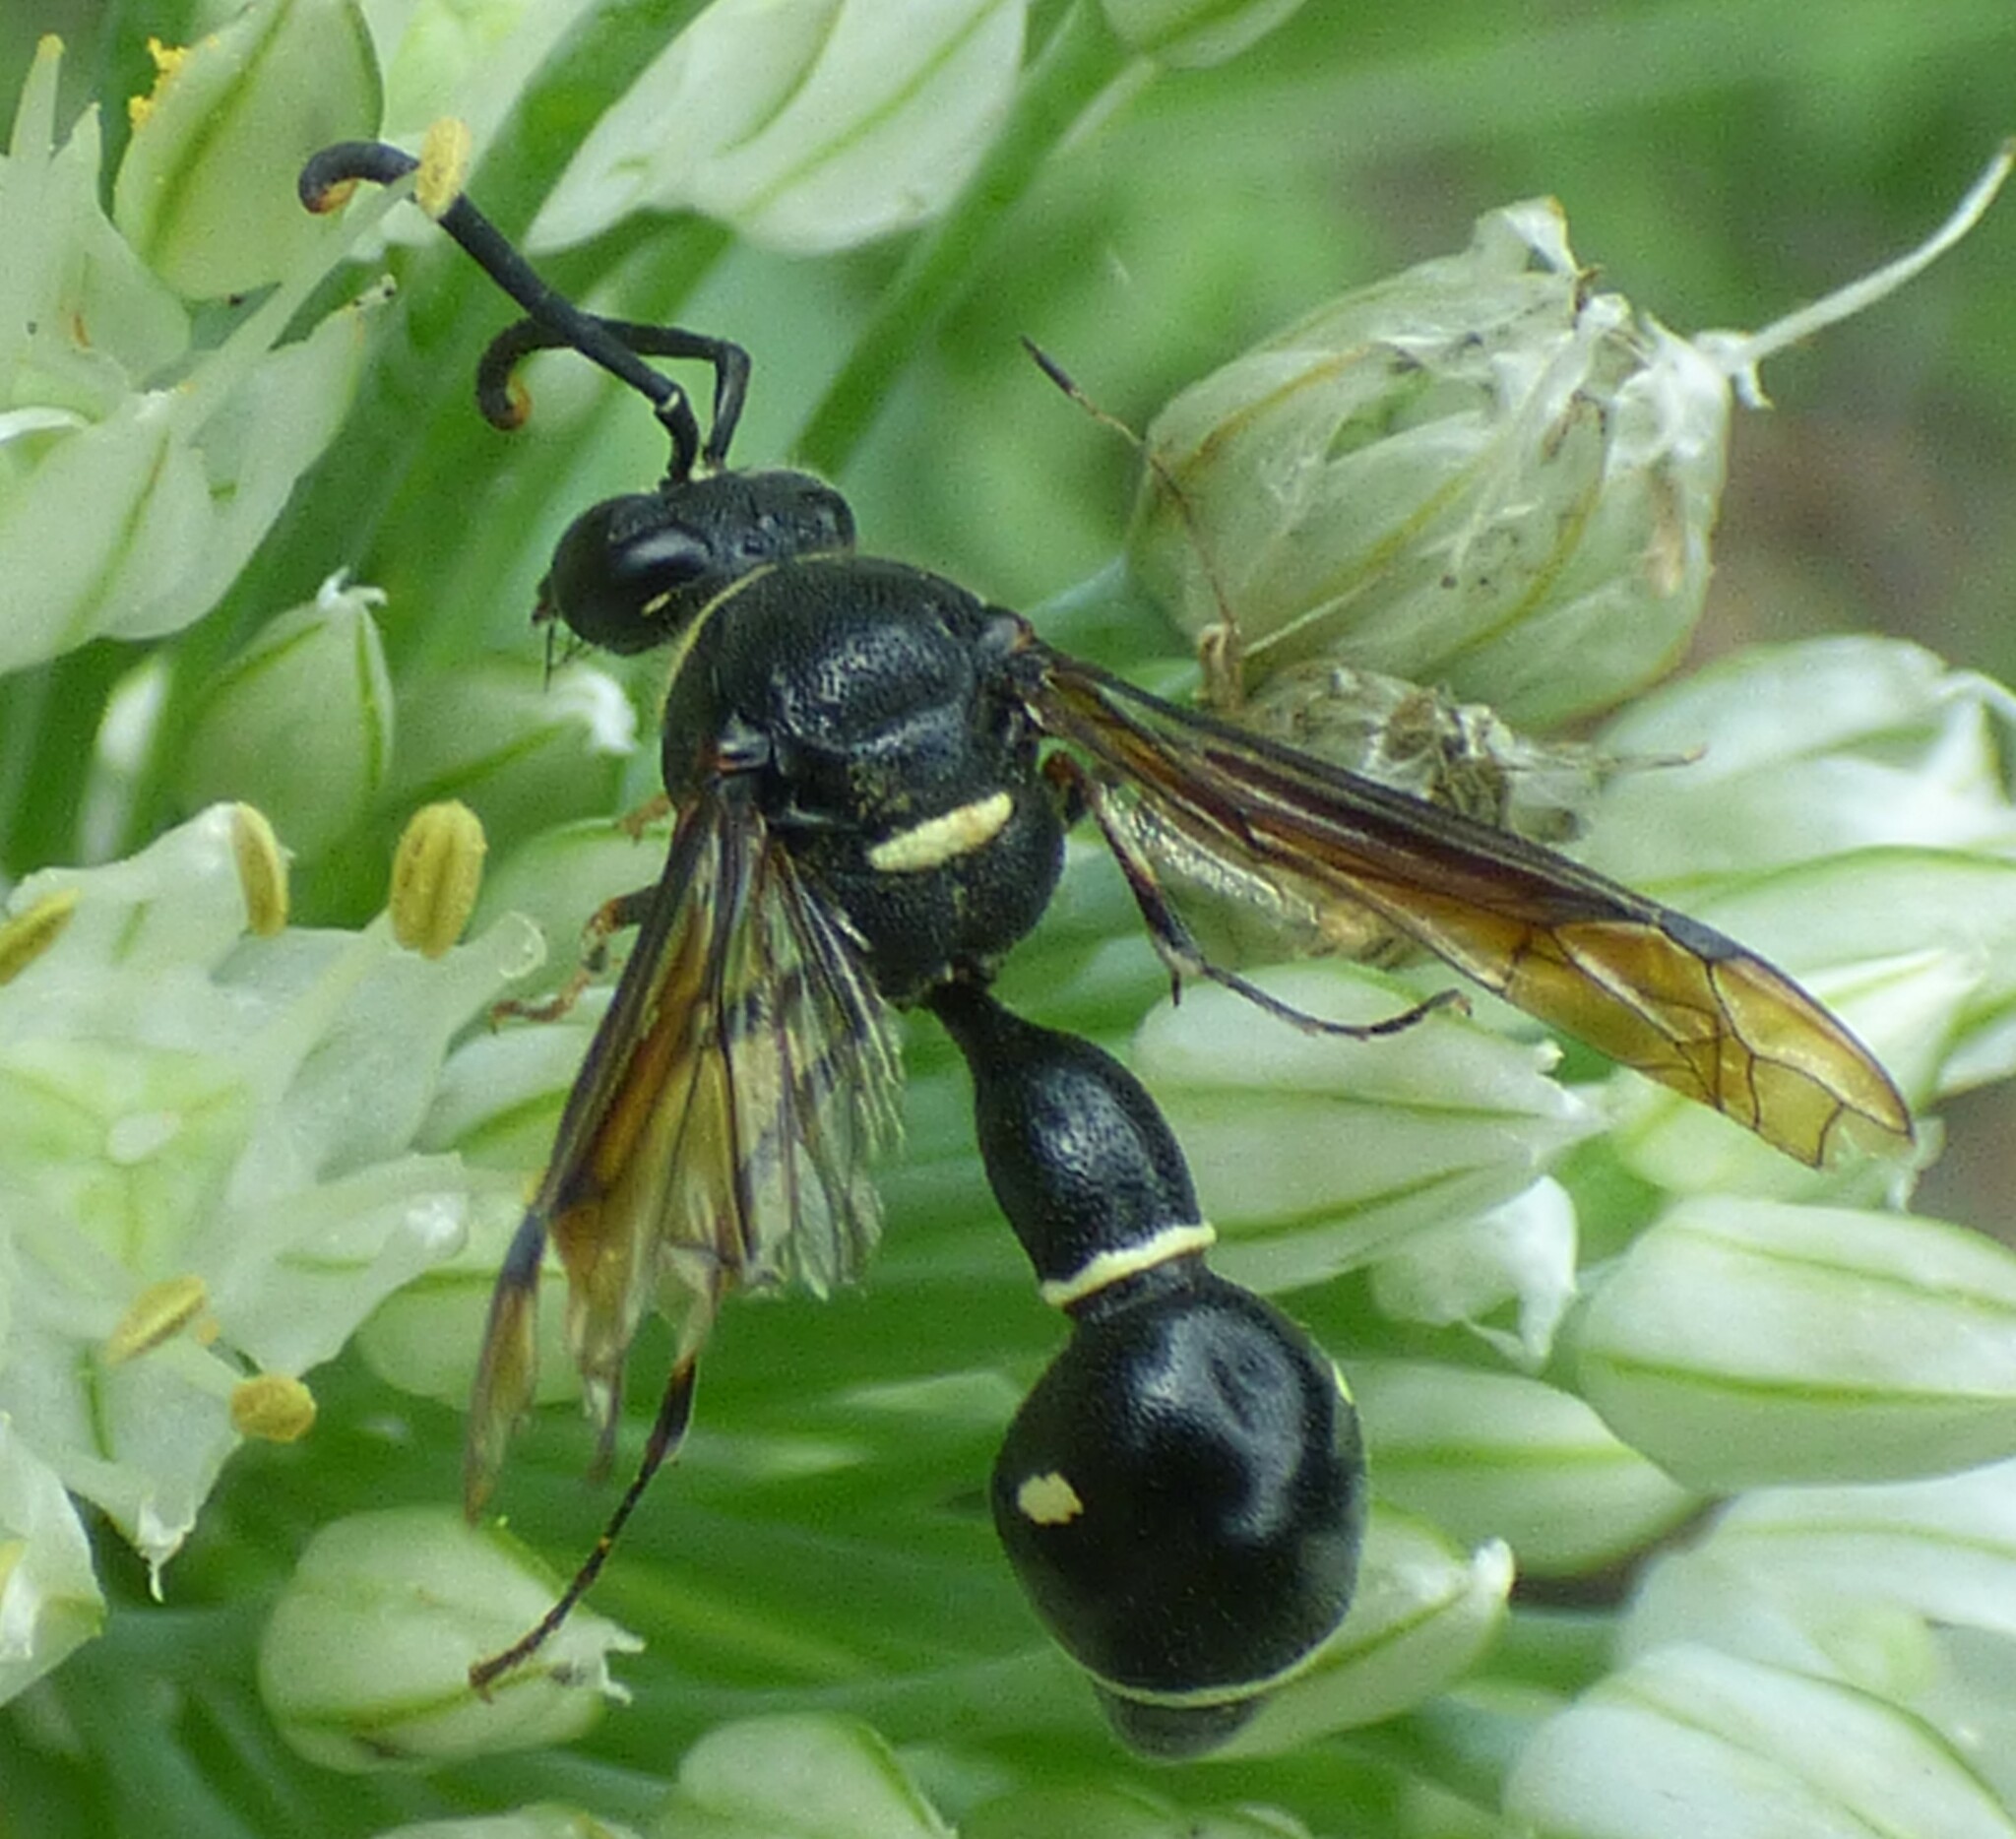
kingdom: Animalia
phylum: Arthropoda
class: Insecta
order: Hymenoptera
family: Vespidae
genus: Eumenes
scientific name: Eumenes fraternus
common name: Fraternal potter wasp
